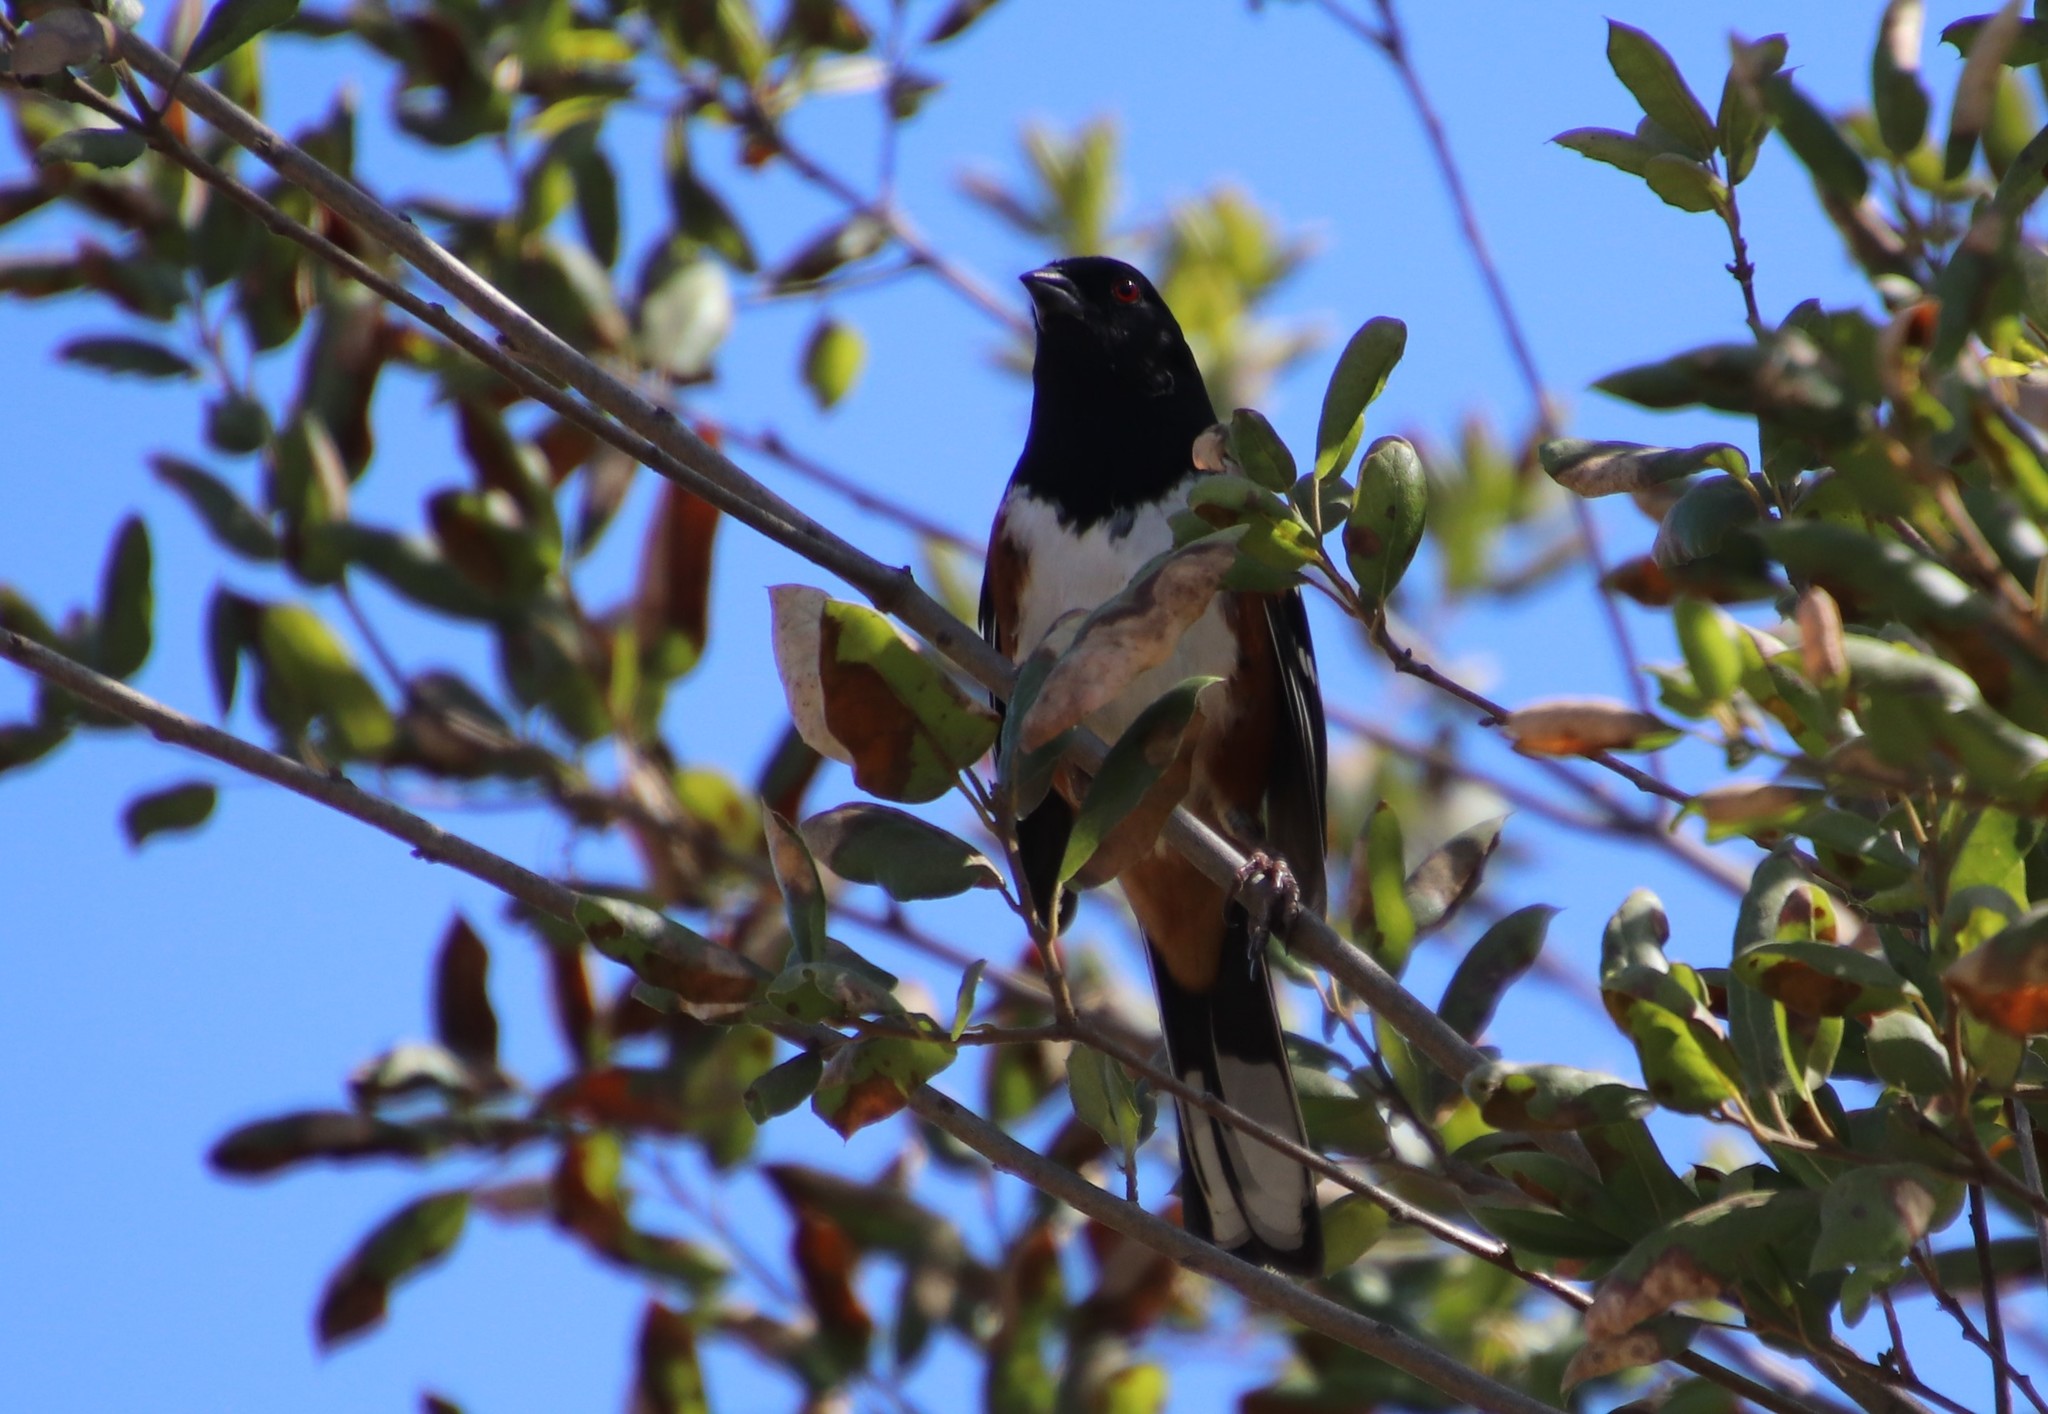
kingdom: Animalia
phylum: Chordata
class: Aves
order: Passeriformes
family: Passerellidae
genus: Pipilo
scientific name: Pipilo maculatus
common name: Spotted towhee
